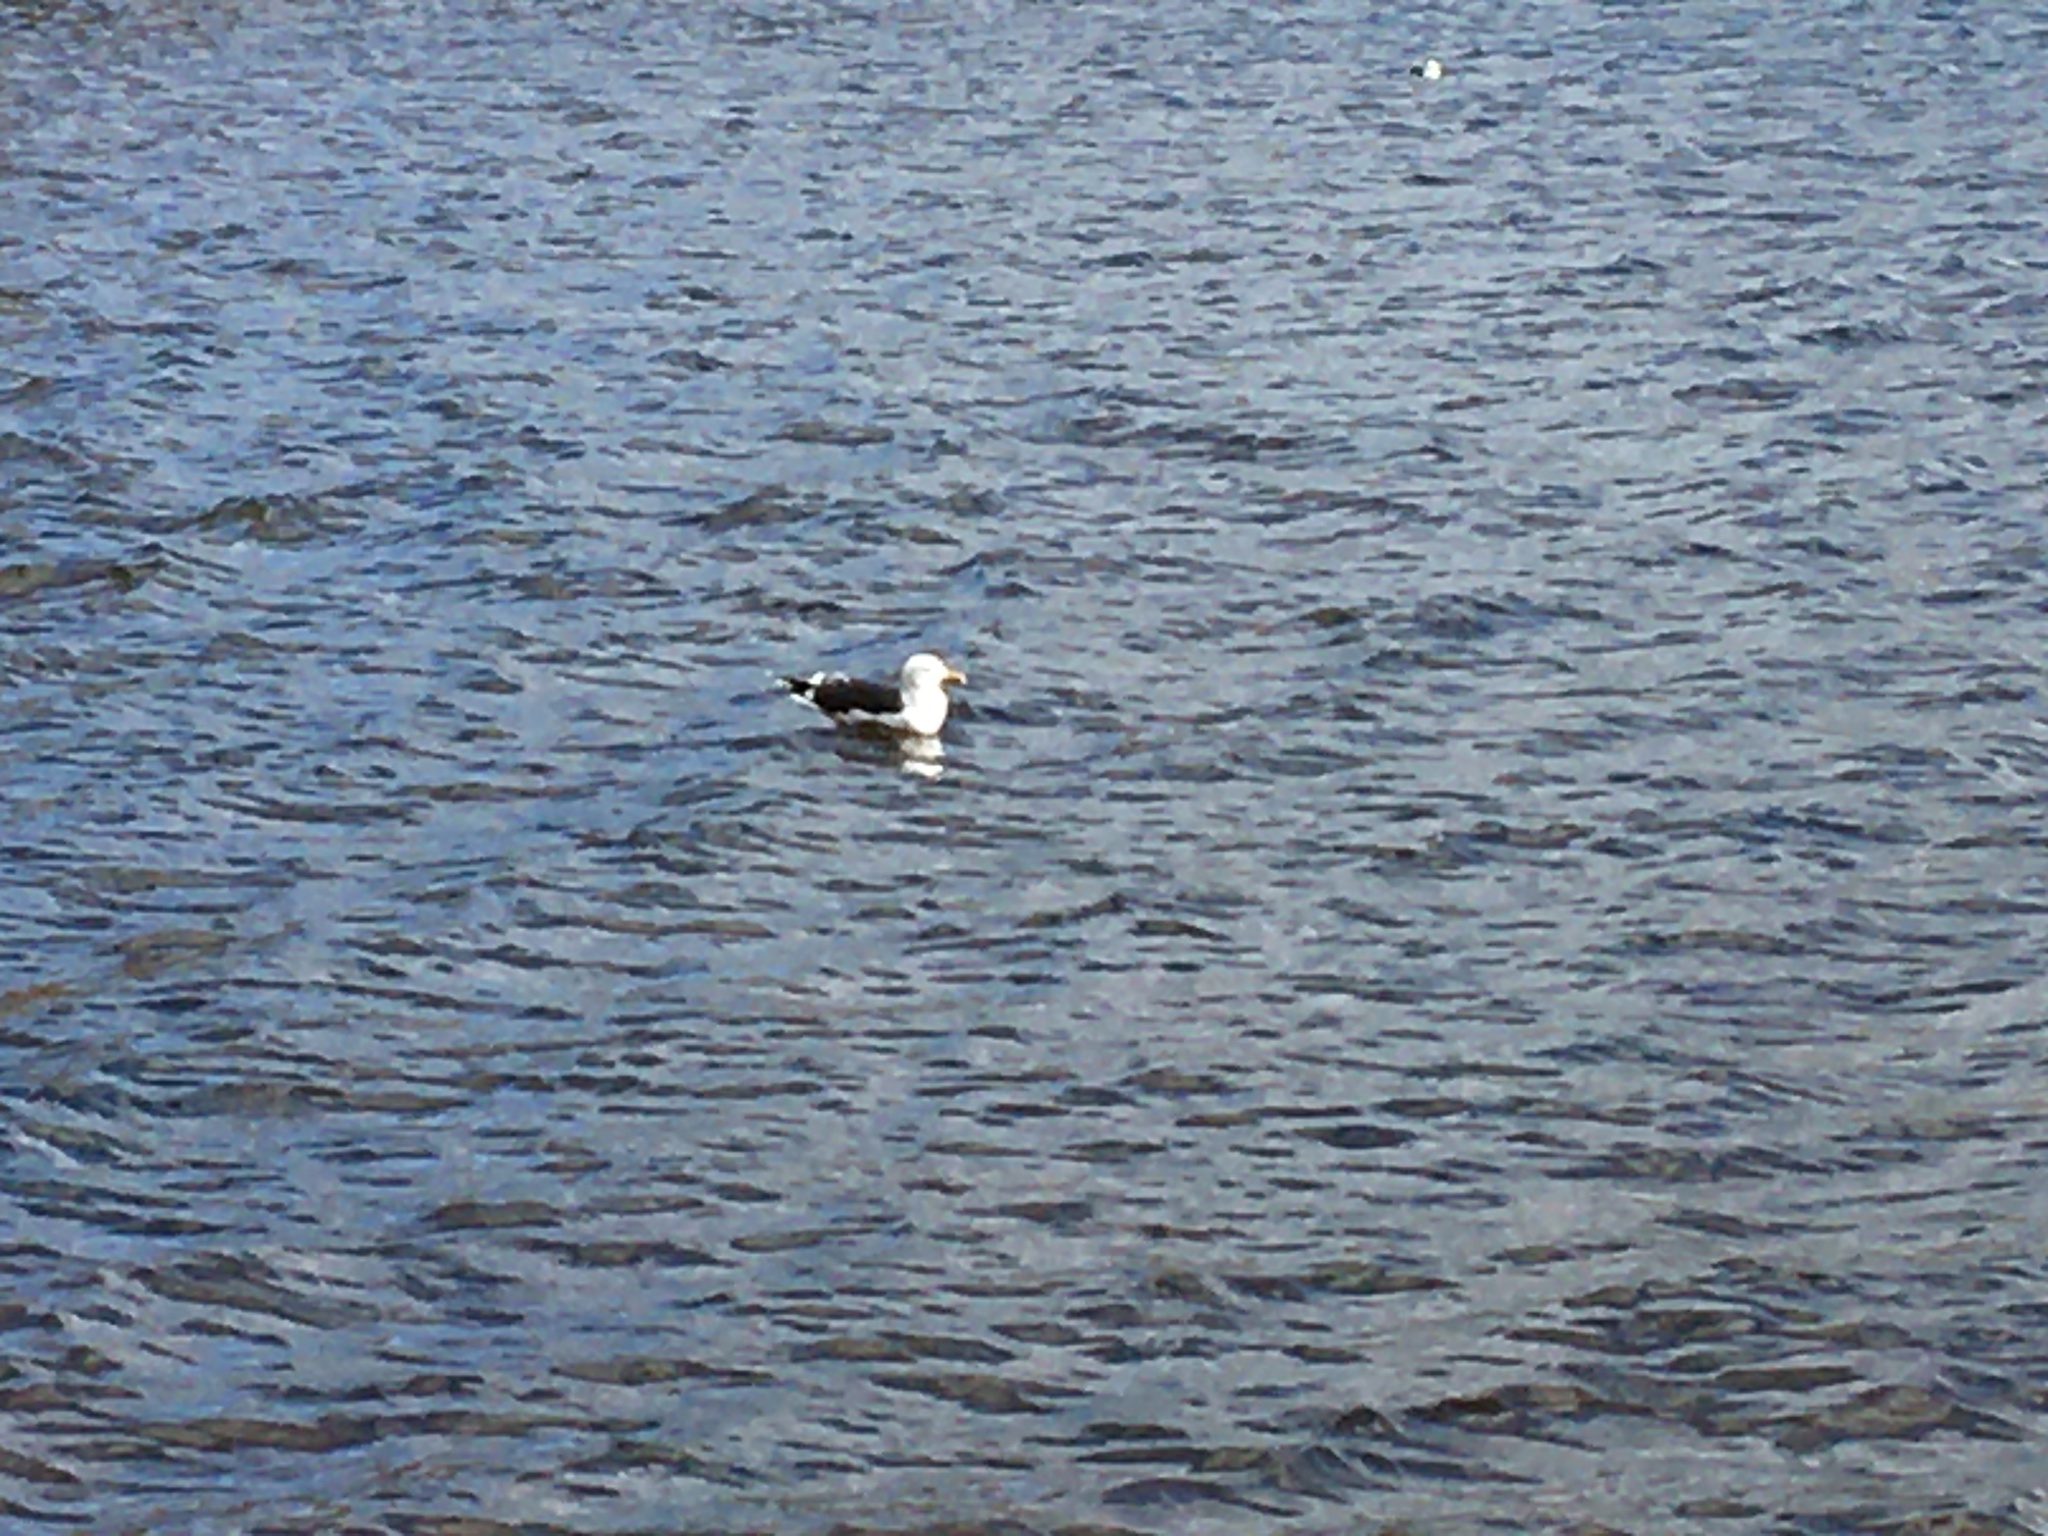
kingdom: Animalia
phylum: Chordata
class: Aves
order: Charadriiformes
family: Laridae
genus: Larus
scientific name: Larus marinus
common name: Great black-backed gull
